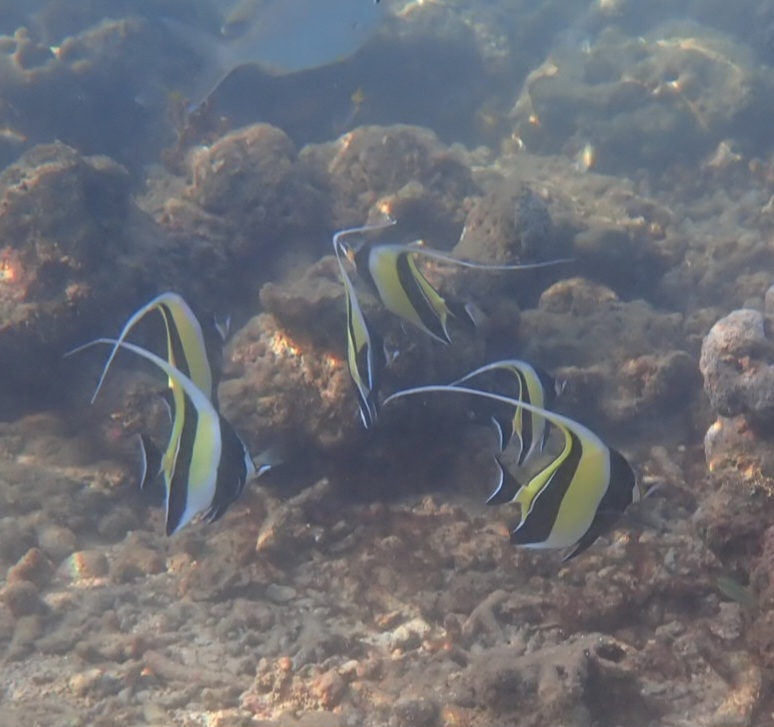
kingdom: Animalia
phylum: Chordata
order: Perciformes
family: Zanclidae
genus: Zanclus
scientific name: Zanclus cornutus
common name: Moorish idol
